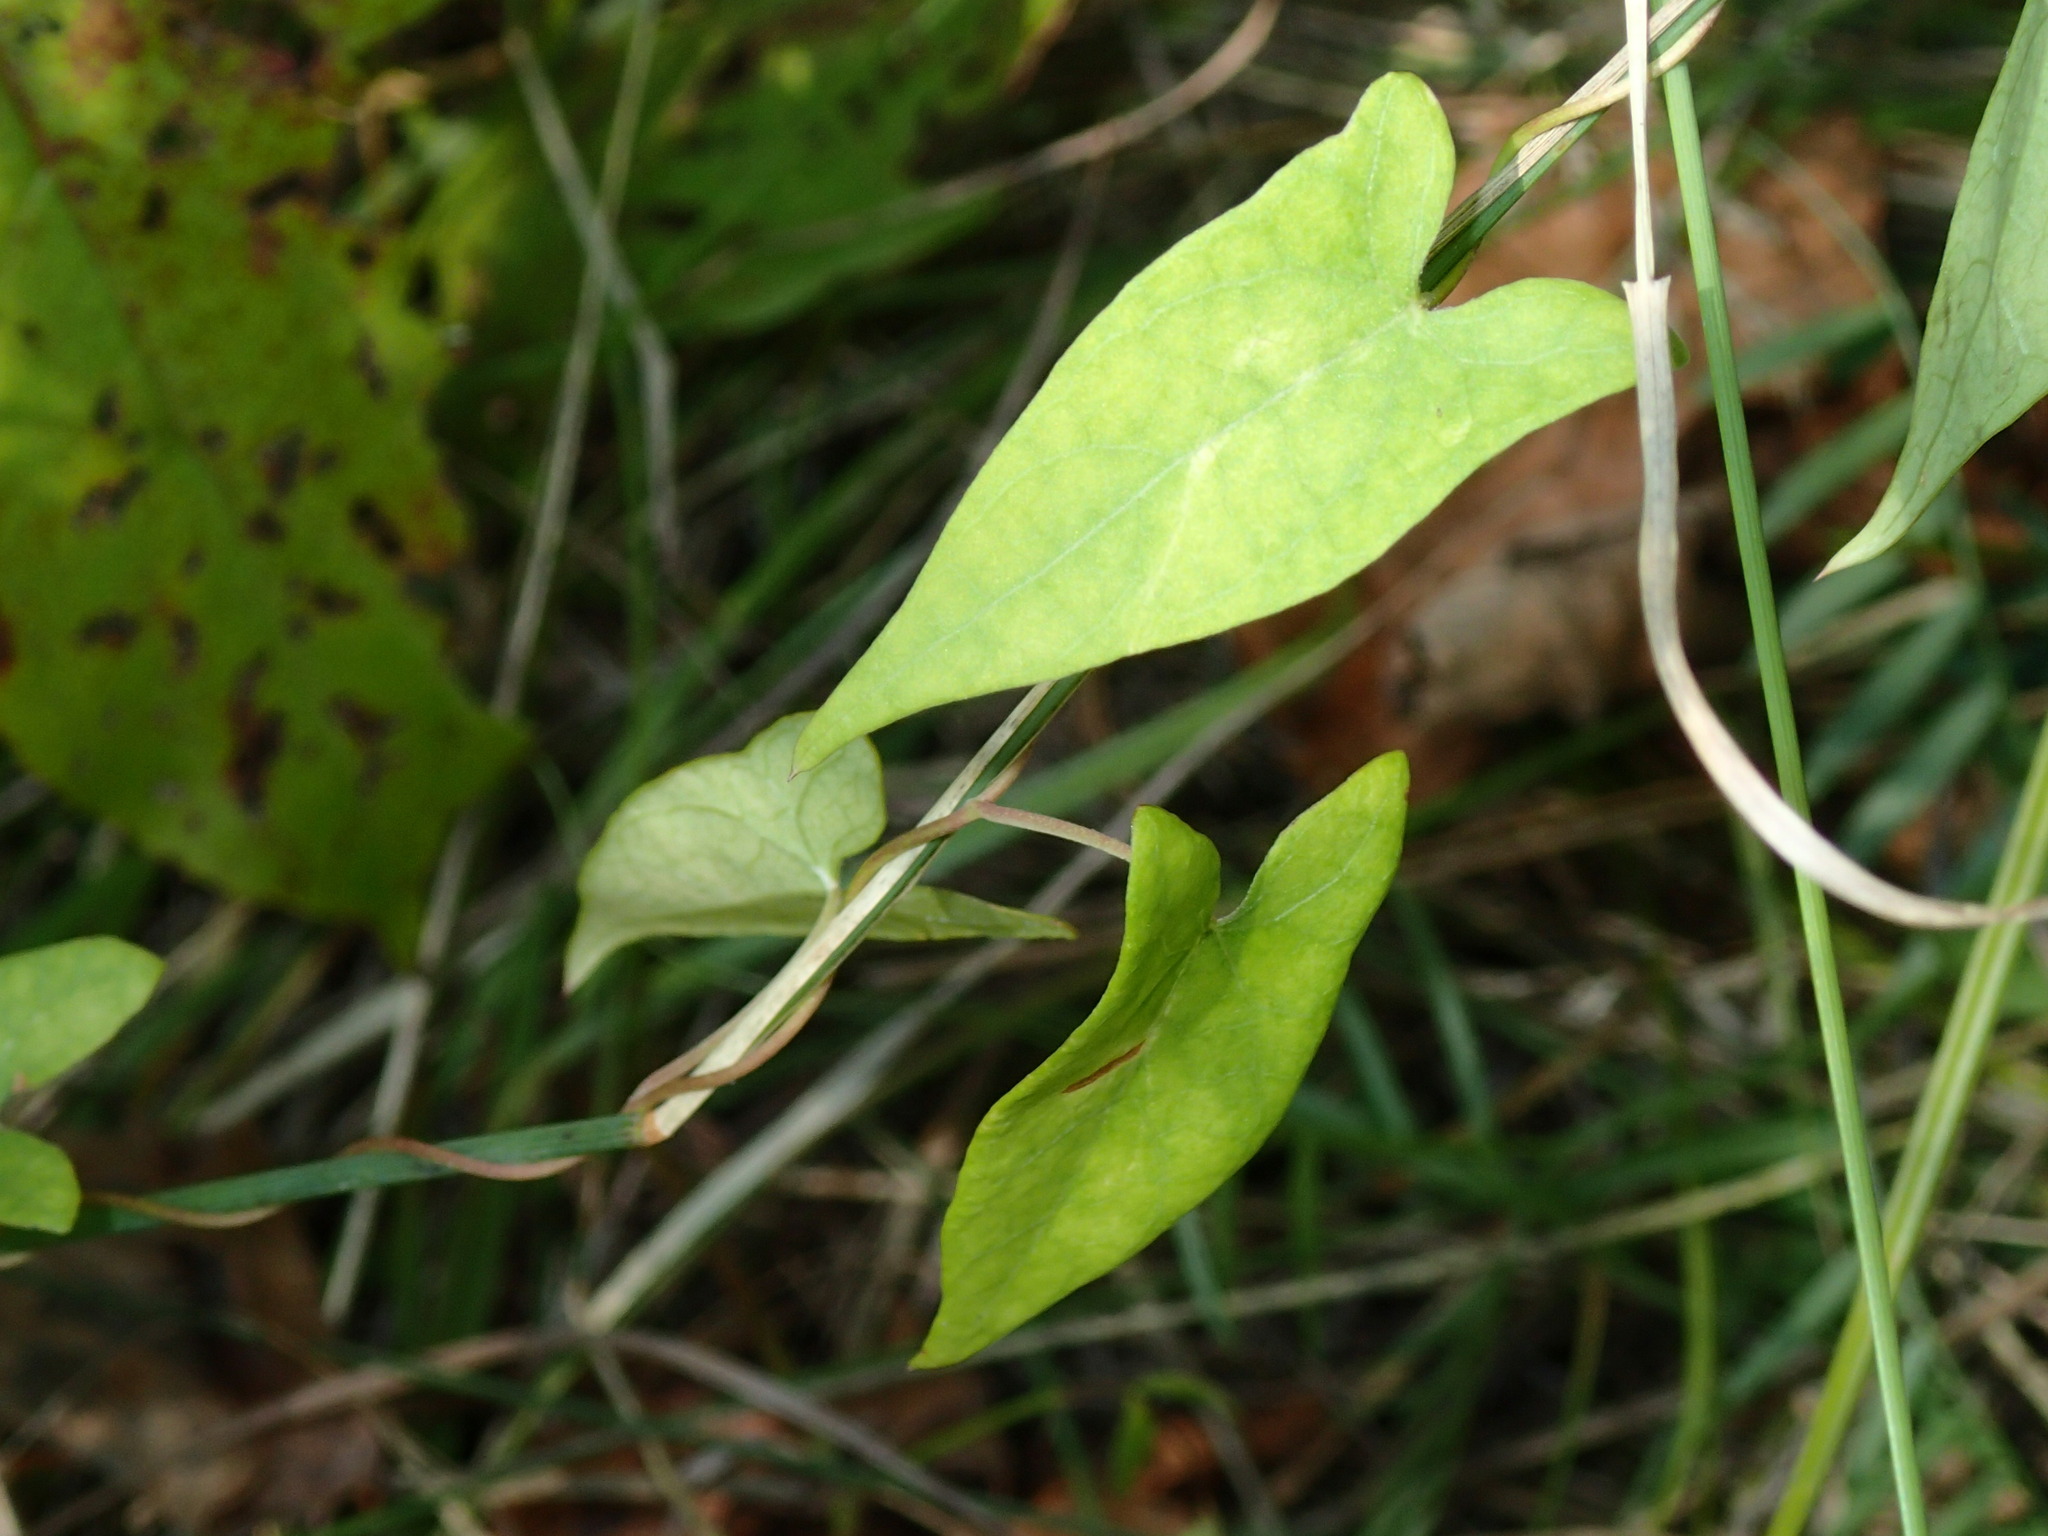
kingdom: Plantae
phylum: Tracheophyta
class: Magnoliopsida
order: Solanales
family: Convolvulaceae
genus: Calystegia
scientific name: Calystegia sepium
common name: Hedge bindweed
